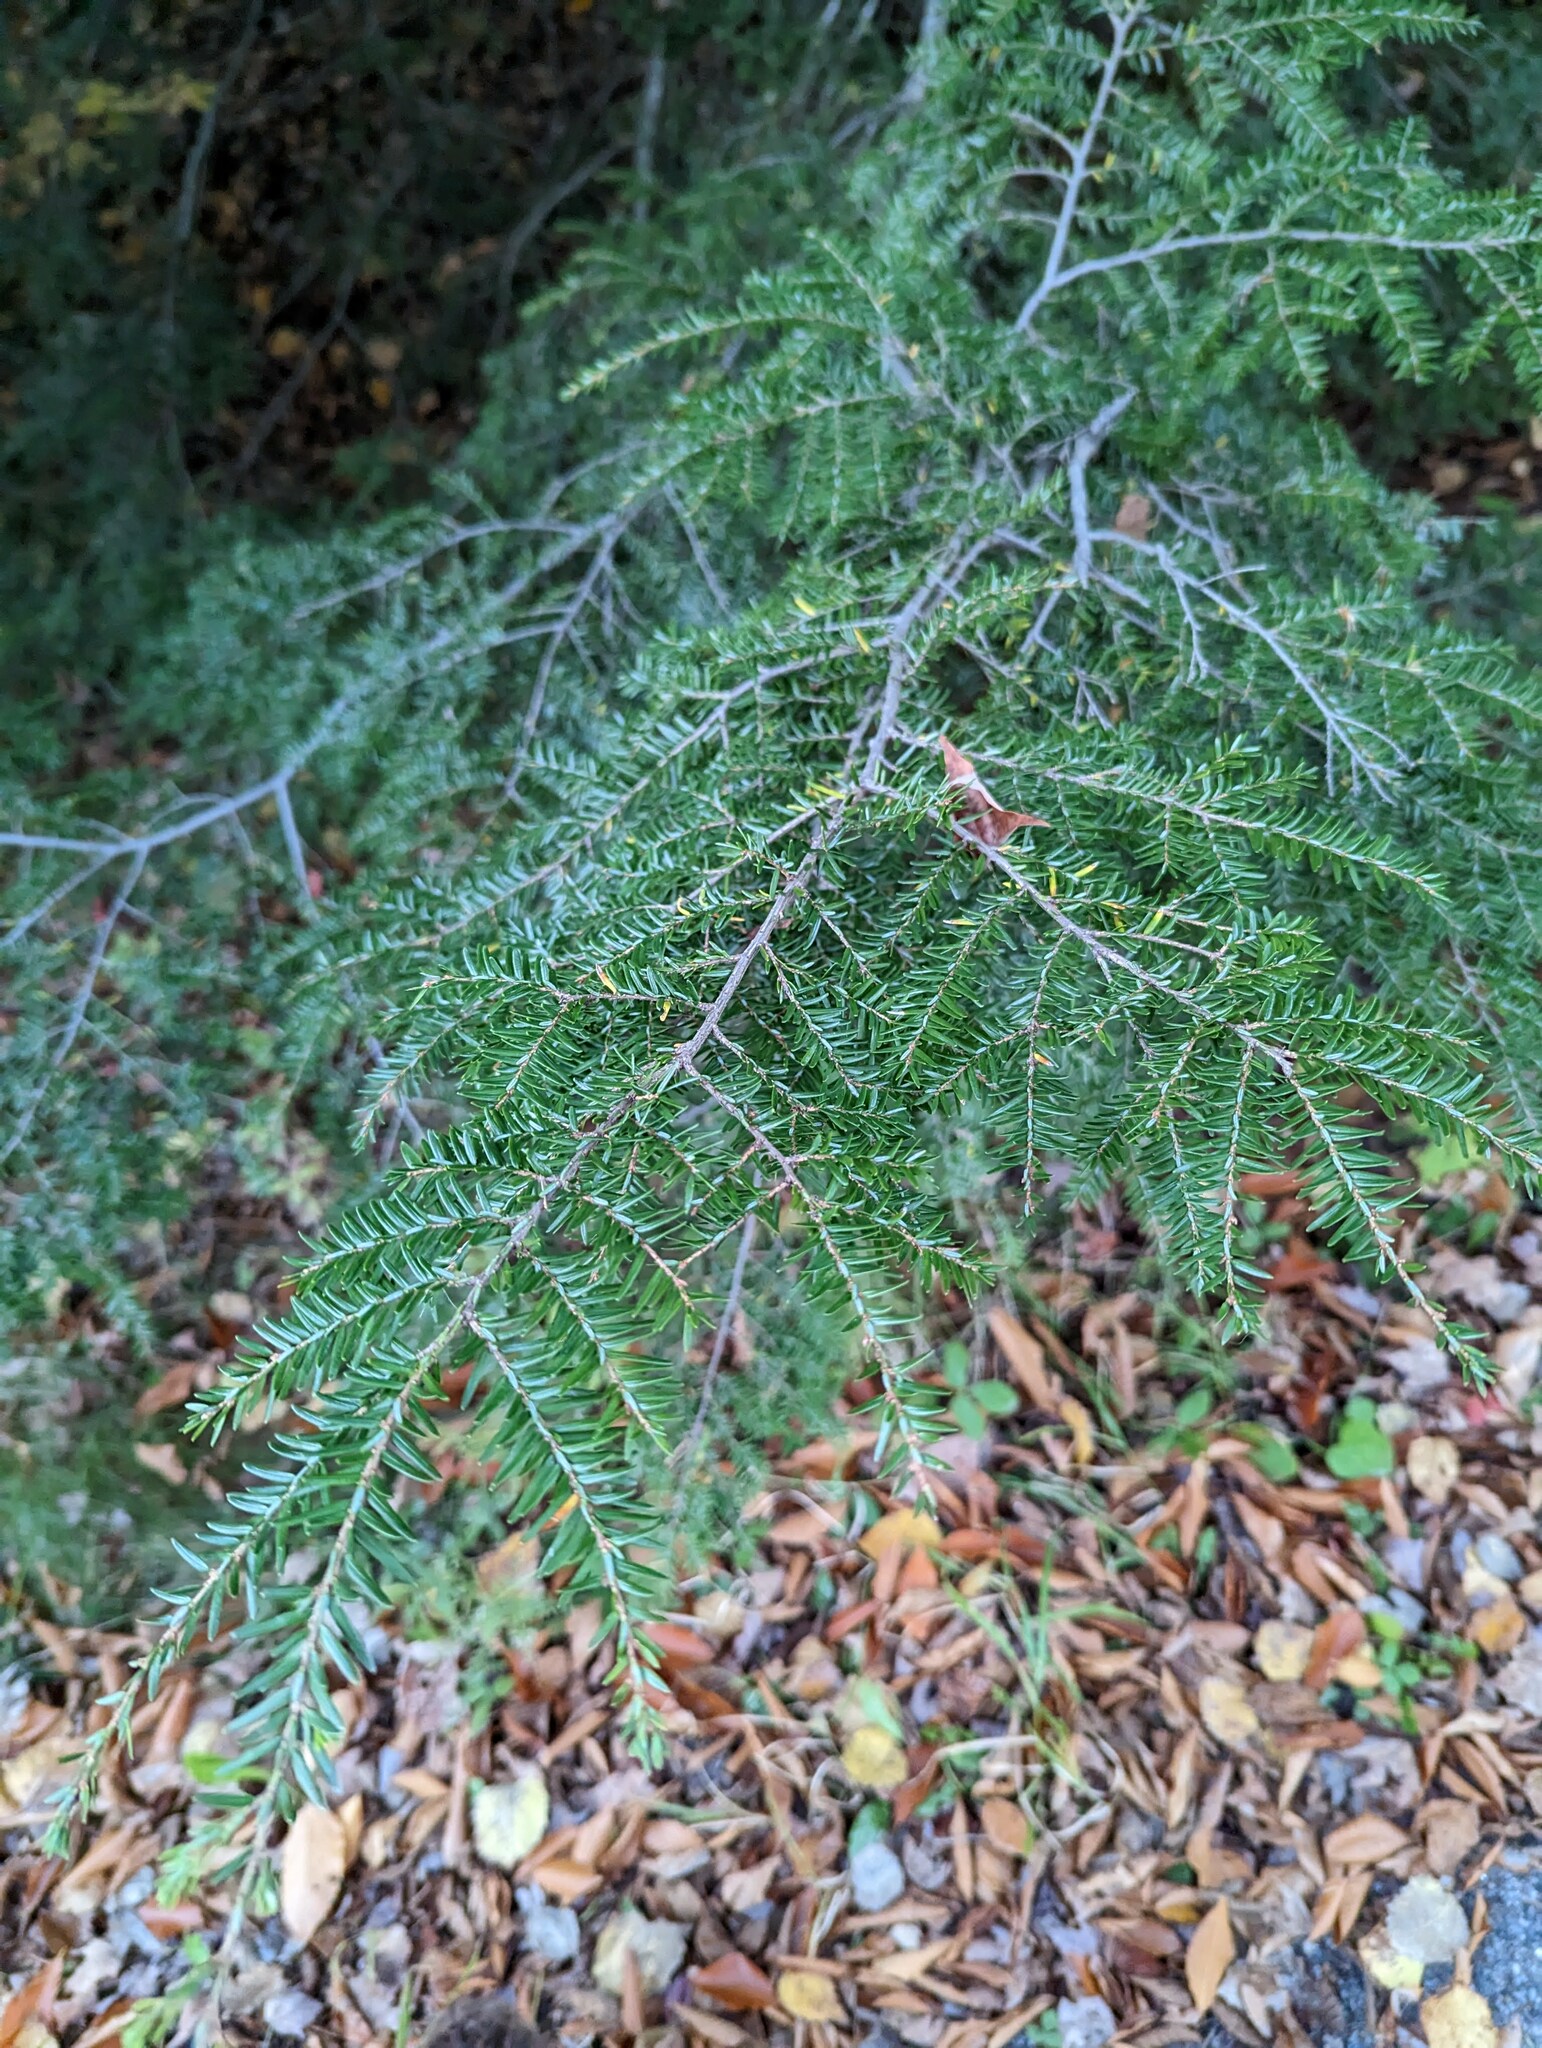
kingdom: Plantae
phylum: Tracheophyta
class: Pinopsida
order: Pinales
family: Pinaceae
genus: Tsuga
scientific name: Tsuga canadensis
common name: Eastern hemlock
